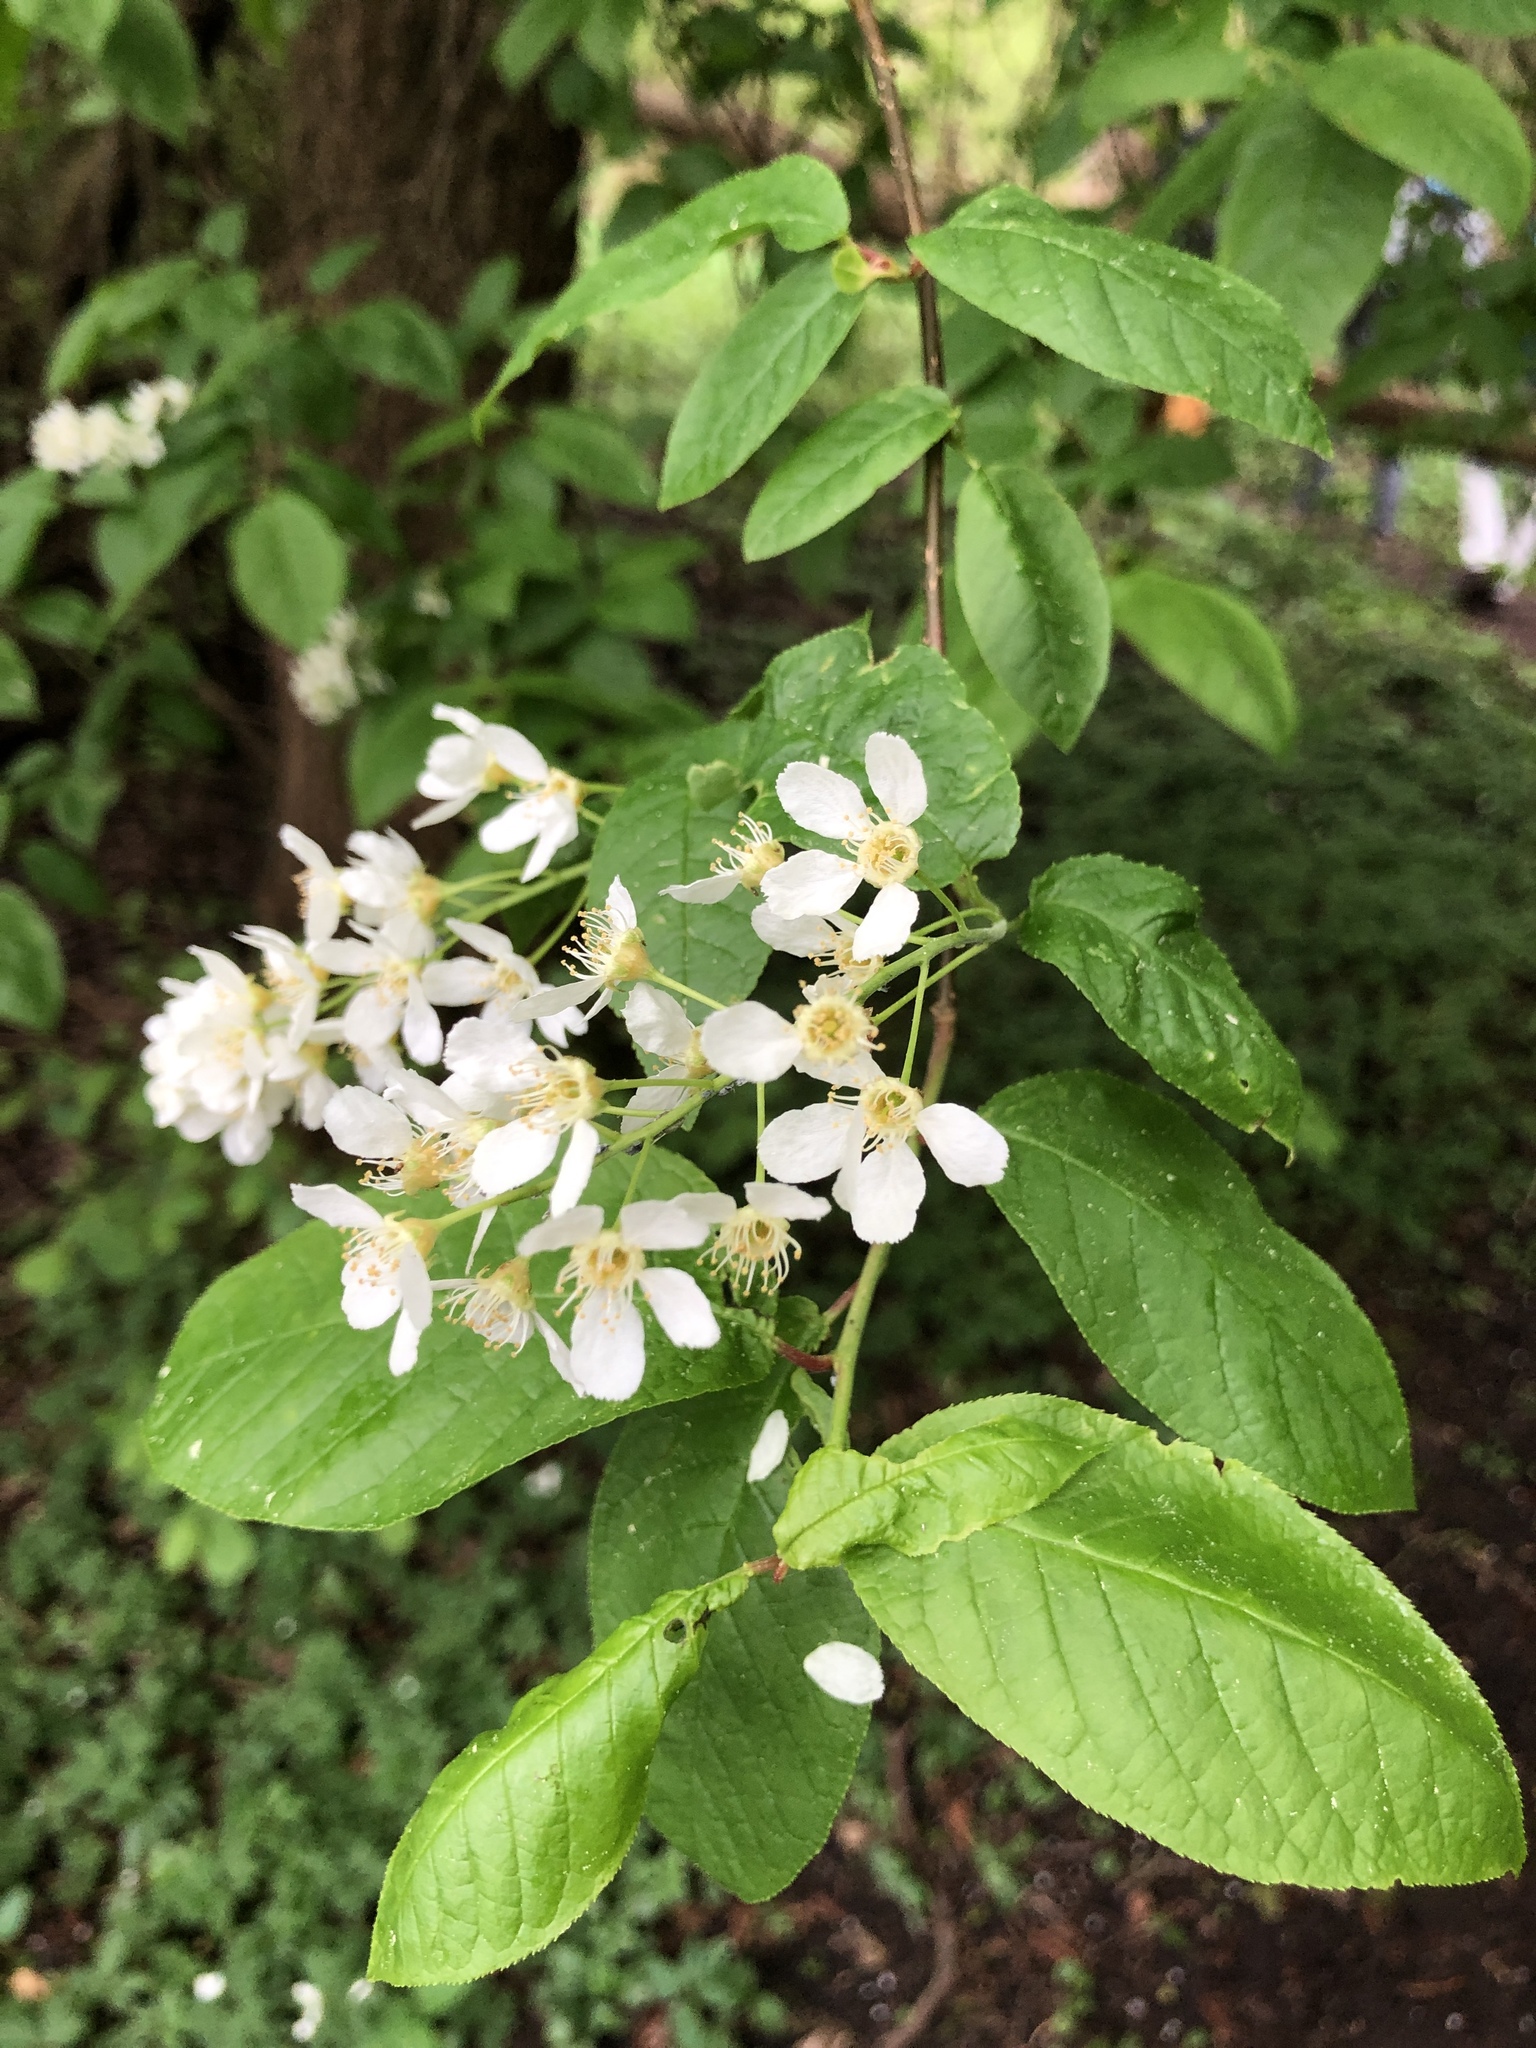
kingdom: Plantae
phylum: Tracheophyta
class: Magnoliopsida
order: Rosales
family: Rosaceae
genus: Prunus
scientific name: Prunus padus
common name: Bird cherry
